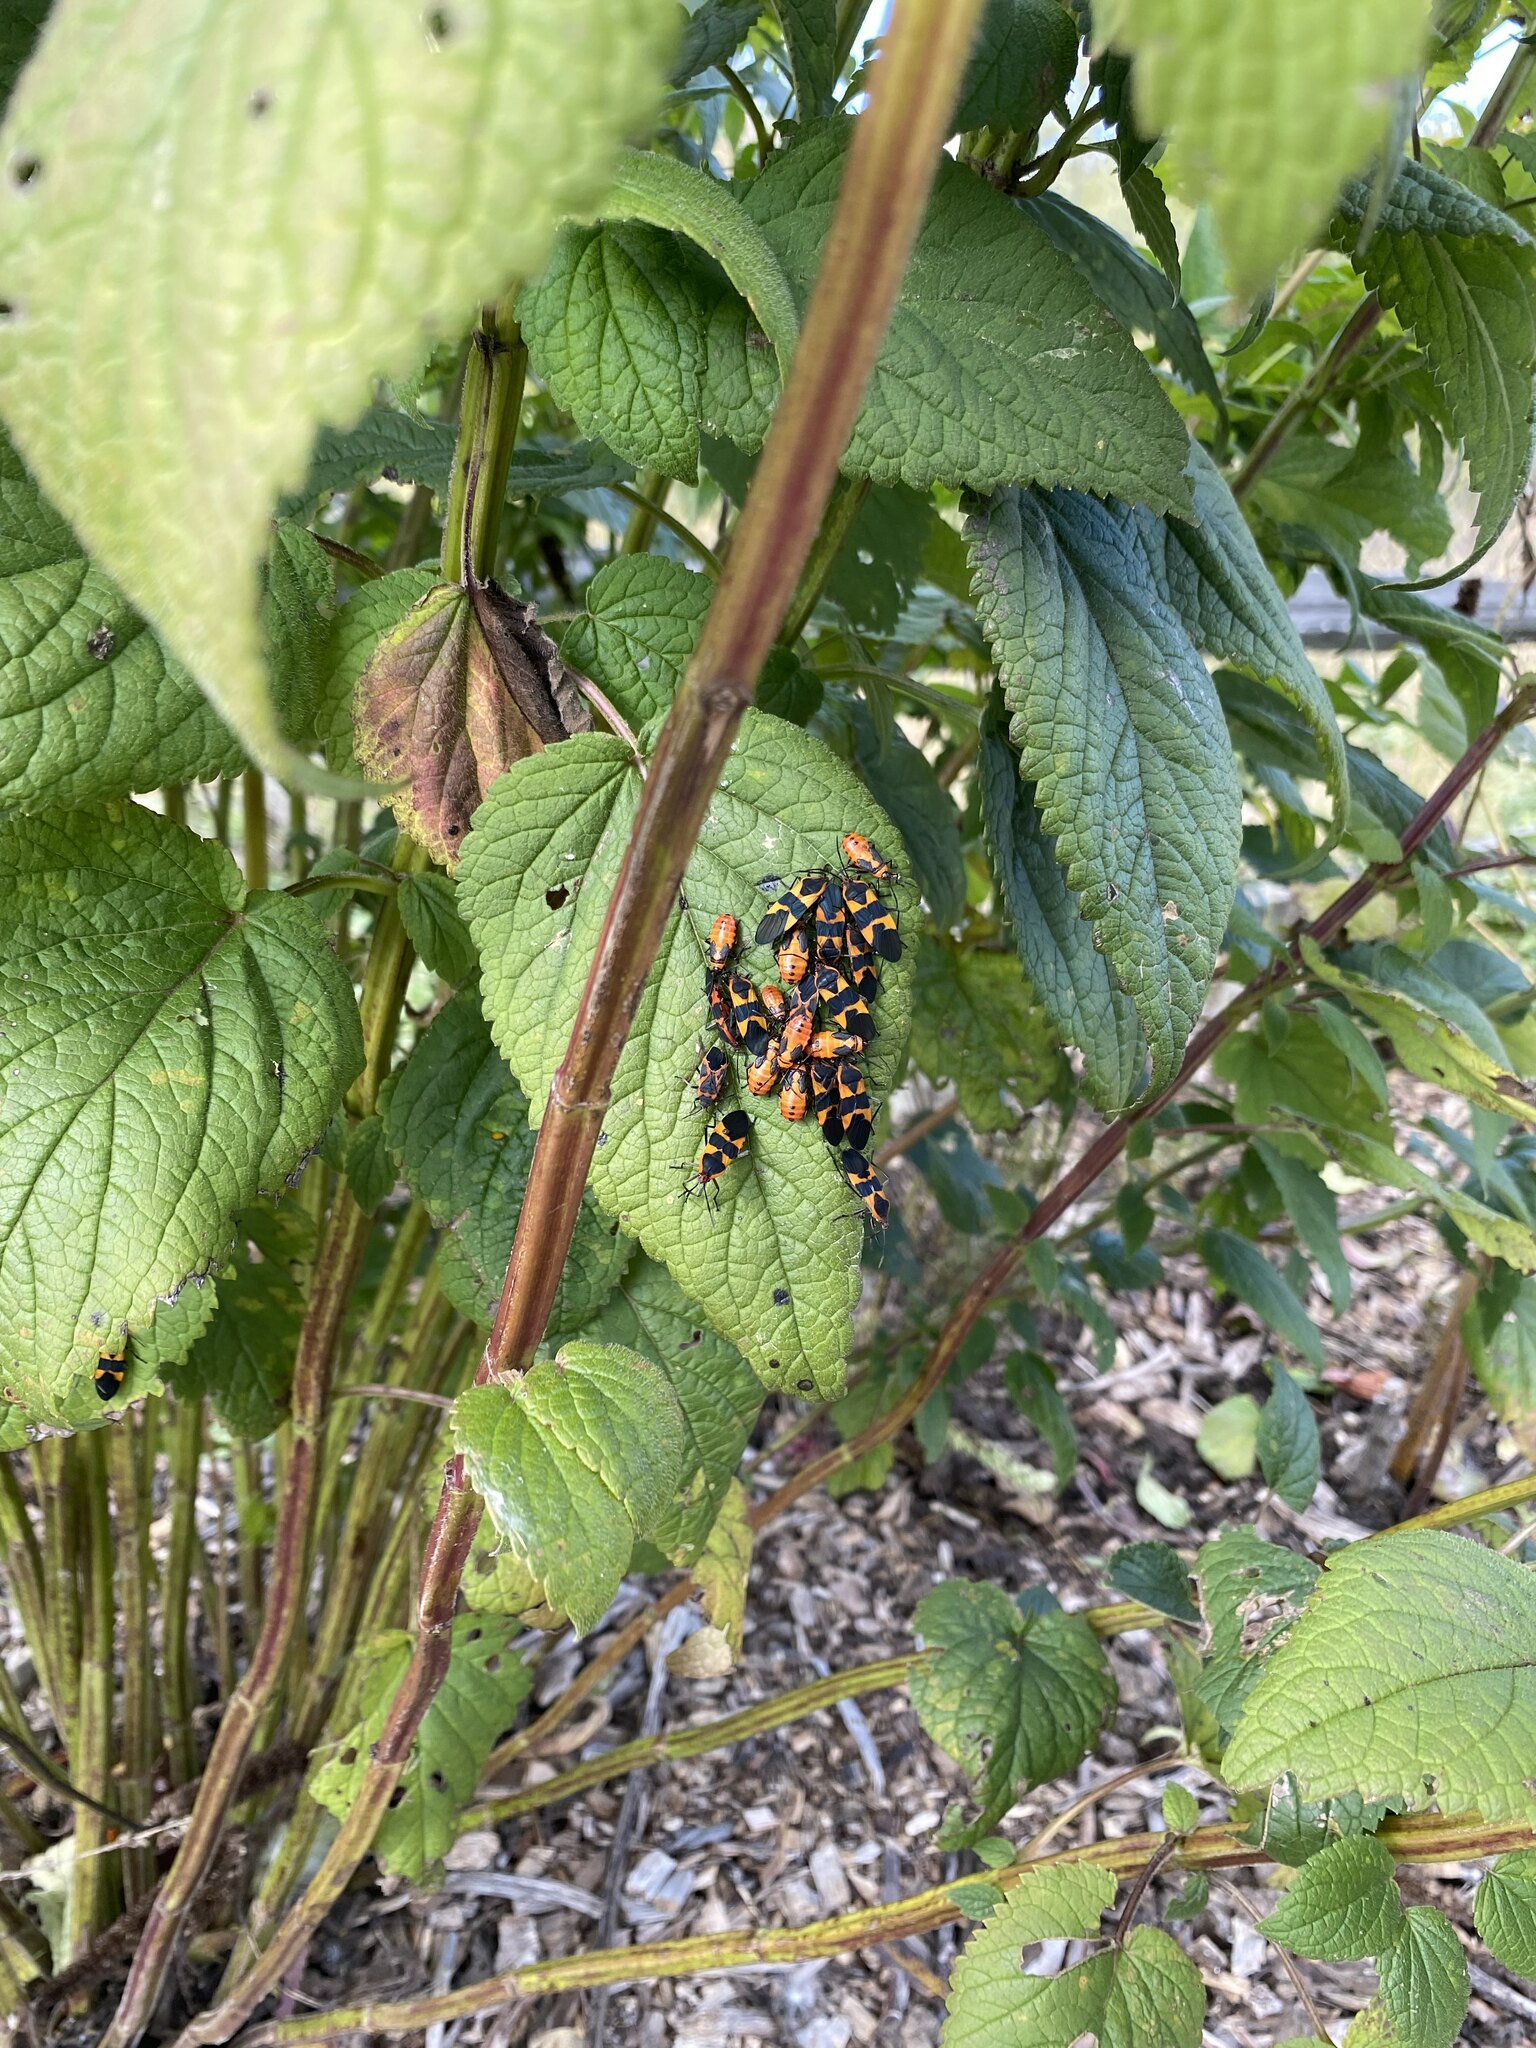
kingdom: Animalia
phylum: Arthropoda
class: Insecta
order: Hemiptera
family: Lygaeidae
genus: Oncopeltus
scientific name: Oncopeltus fasciatus
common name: Large milkweed bug
